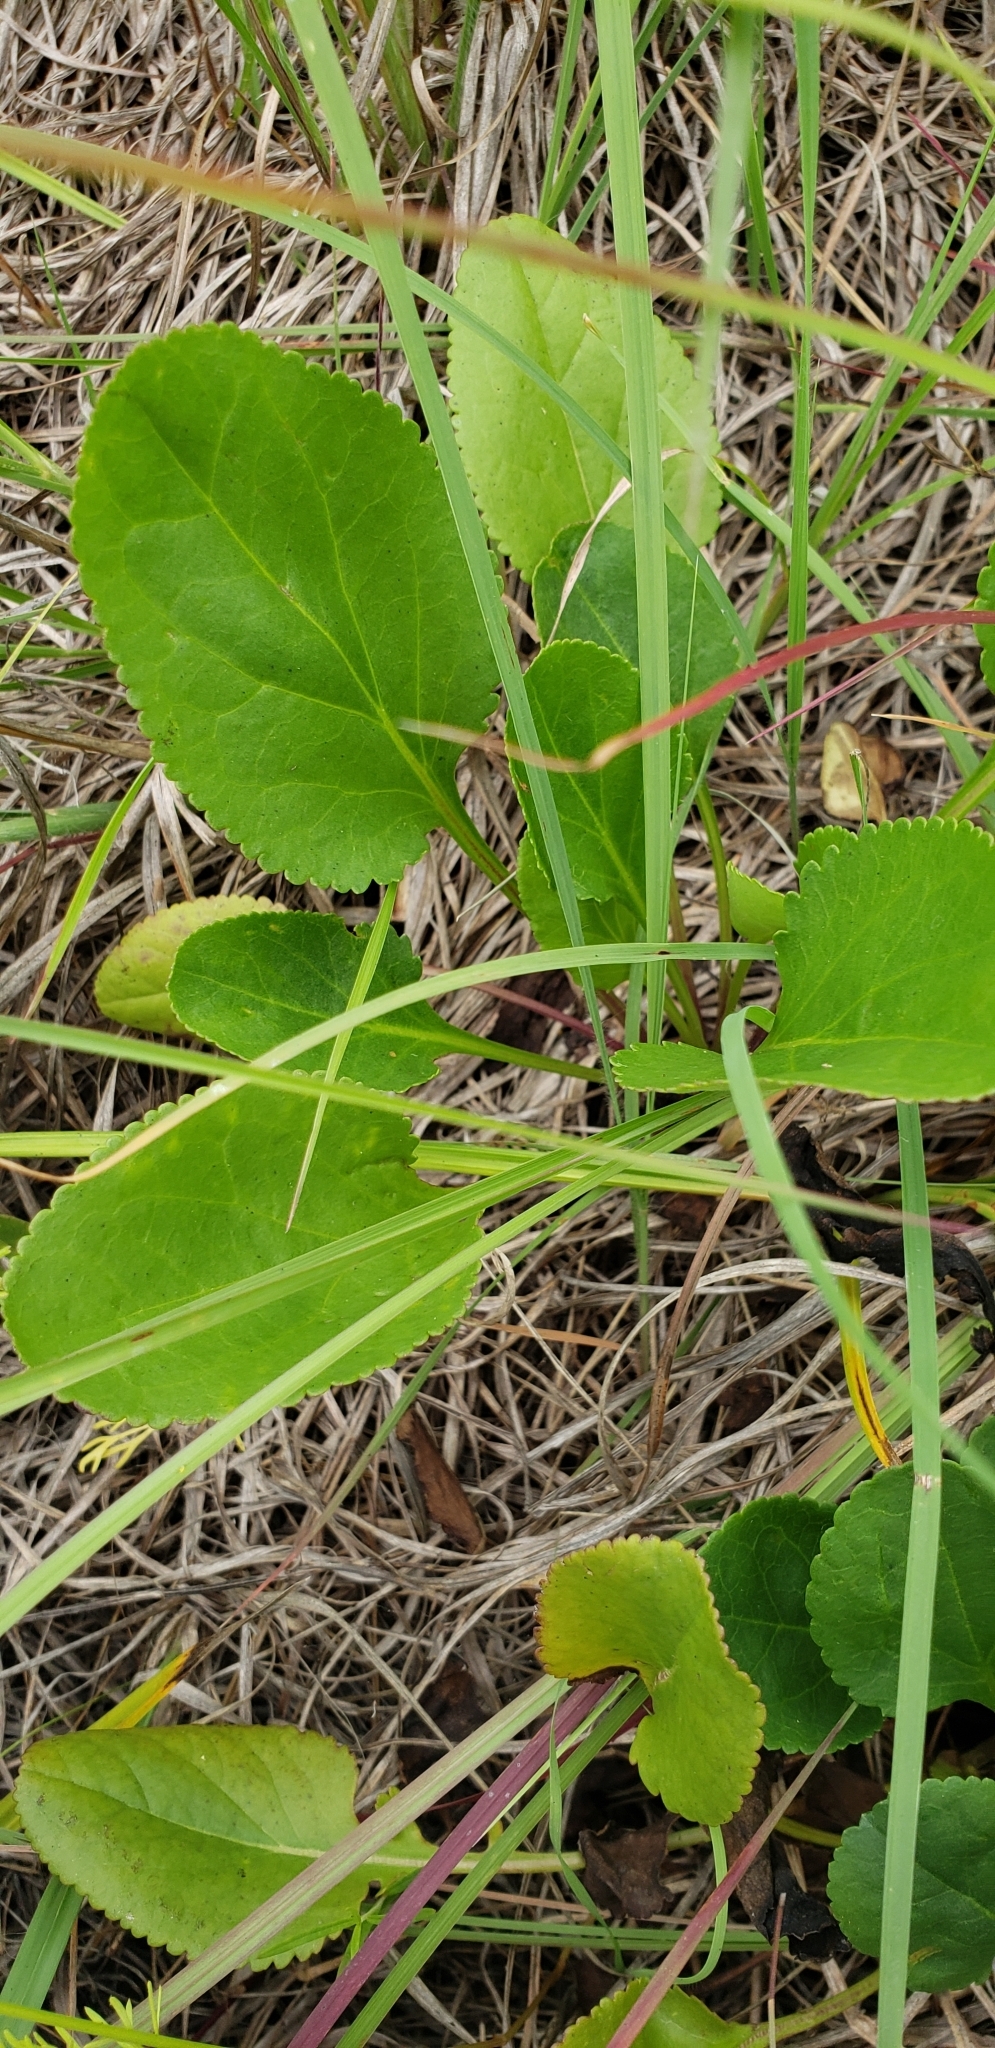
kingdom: Plantae
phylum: Tracheophyta
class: Magnoliopsida
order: Asterales
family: Asteraceae
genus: Packera
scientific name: Packera plattensis
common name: Prairie groundsel
